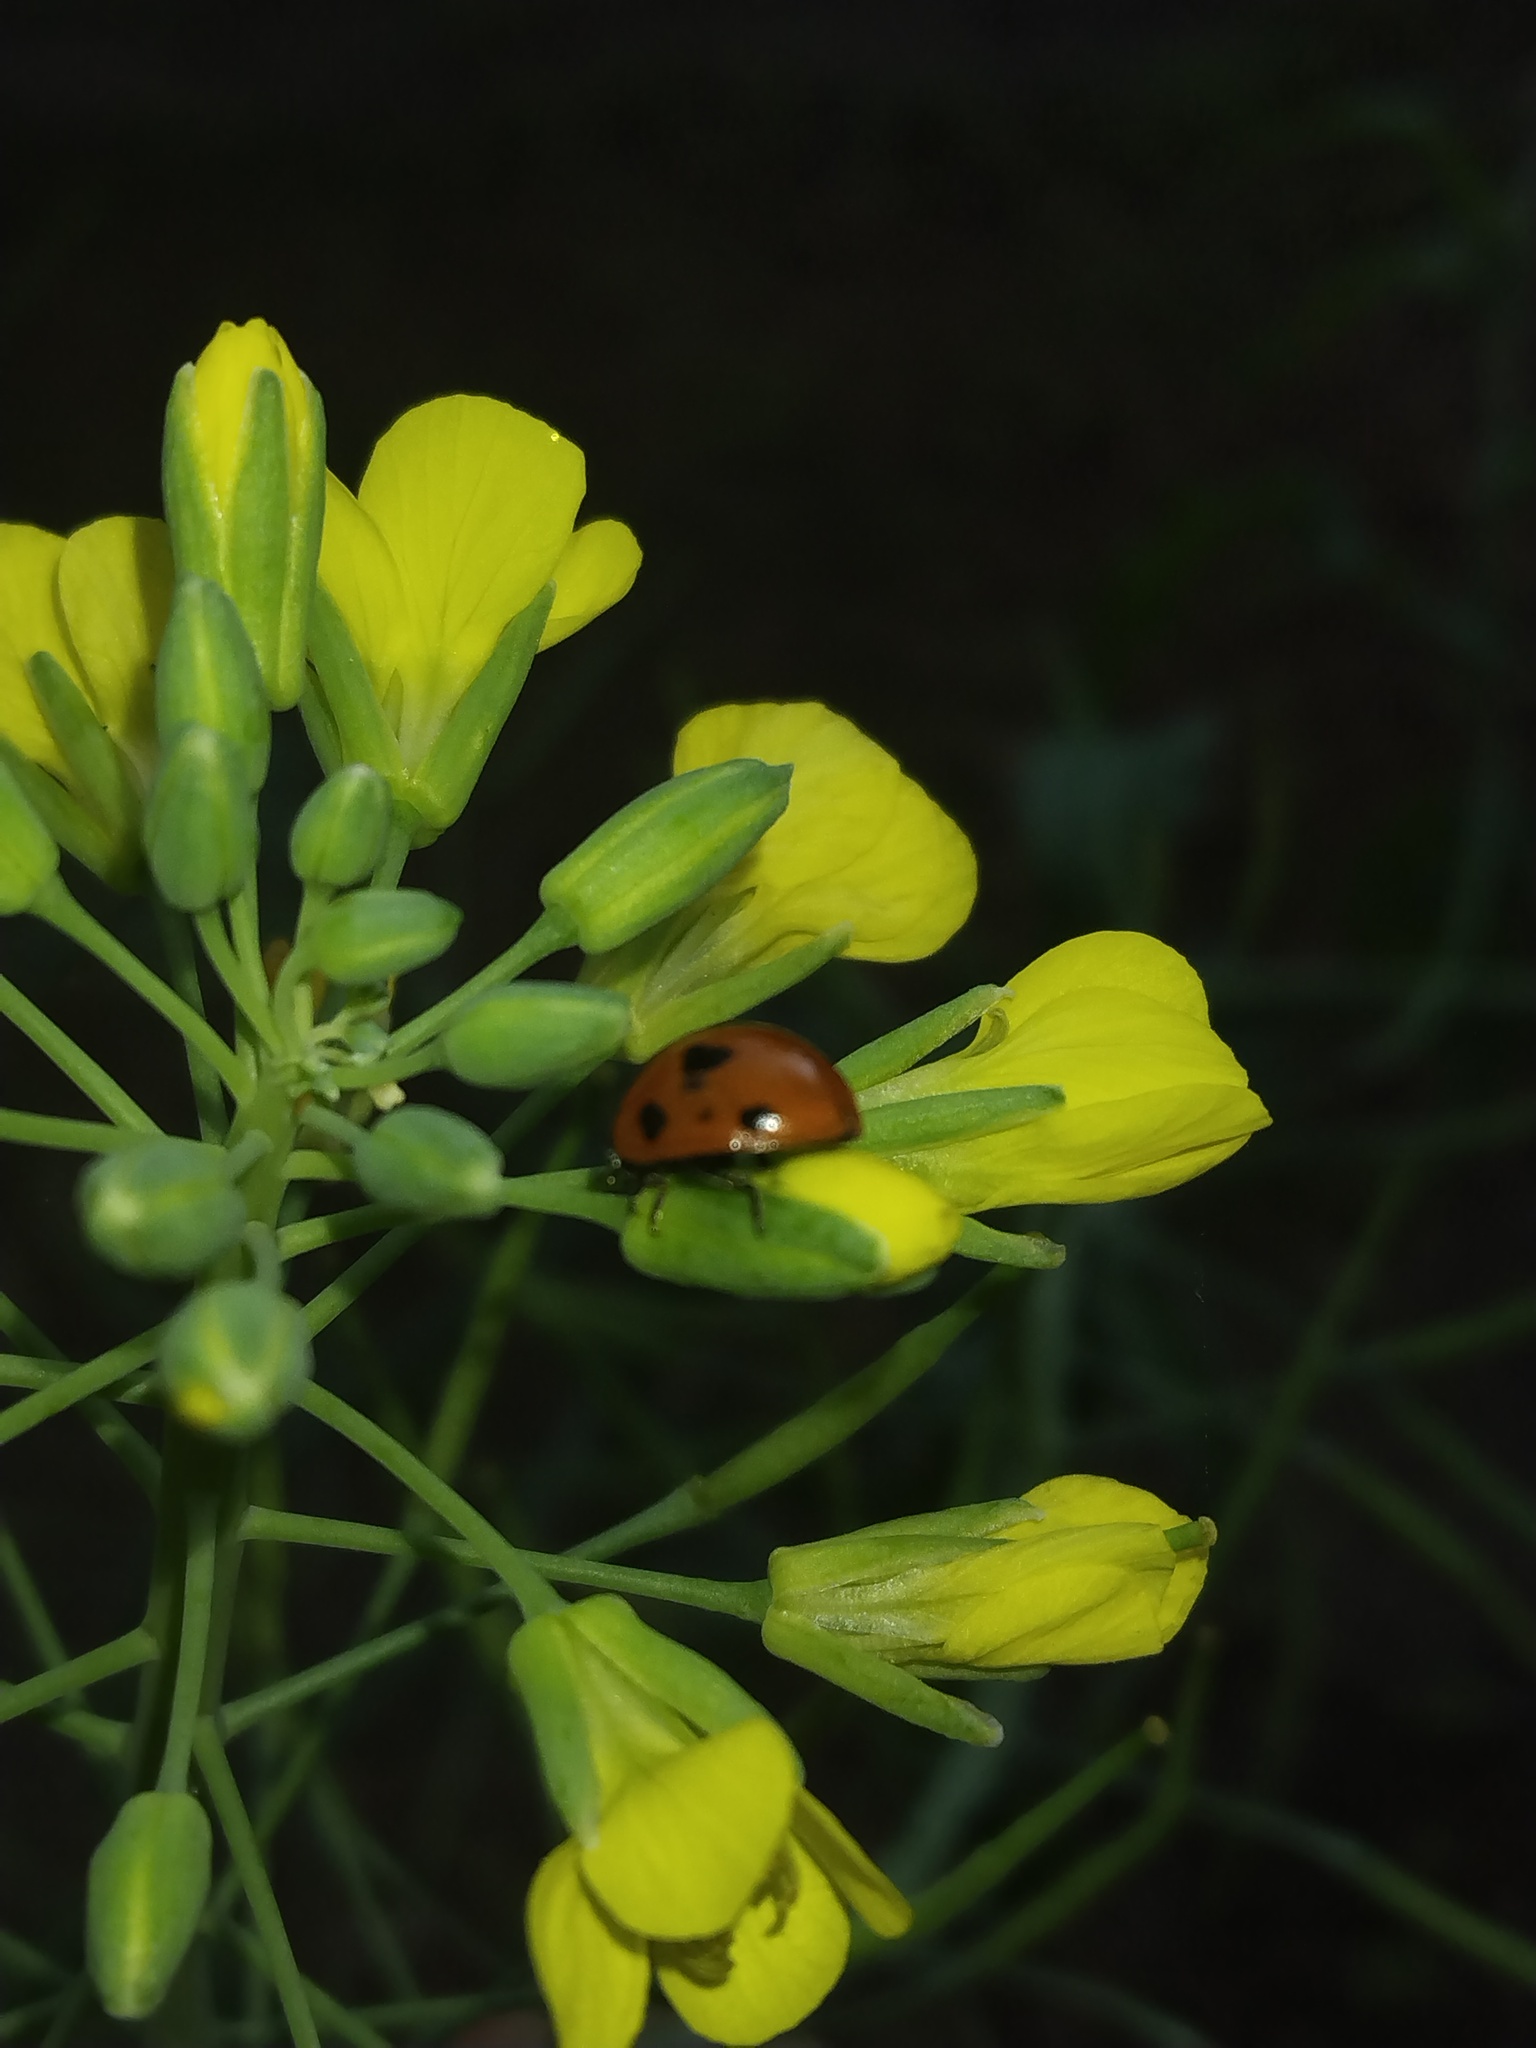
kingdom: Animalia
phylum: Arthropoda
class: Insecta
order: Coleoptera
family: Coccinellidae
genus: Coccinella
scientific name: Coccinella septempunctata
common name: Sevenspotted lady beetle
